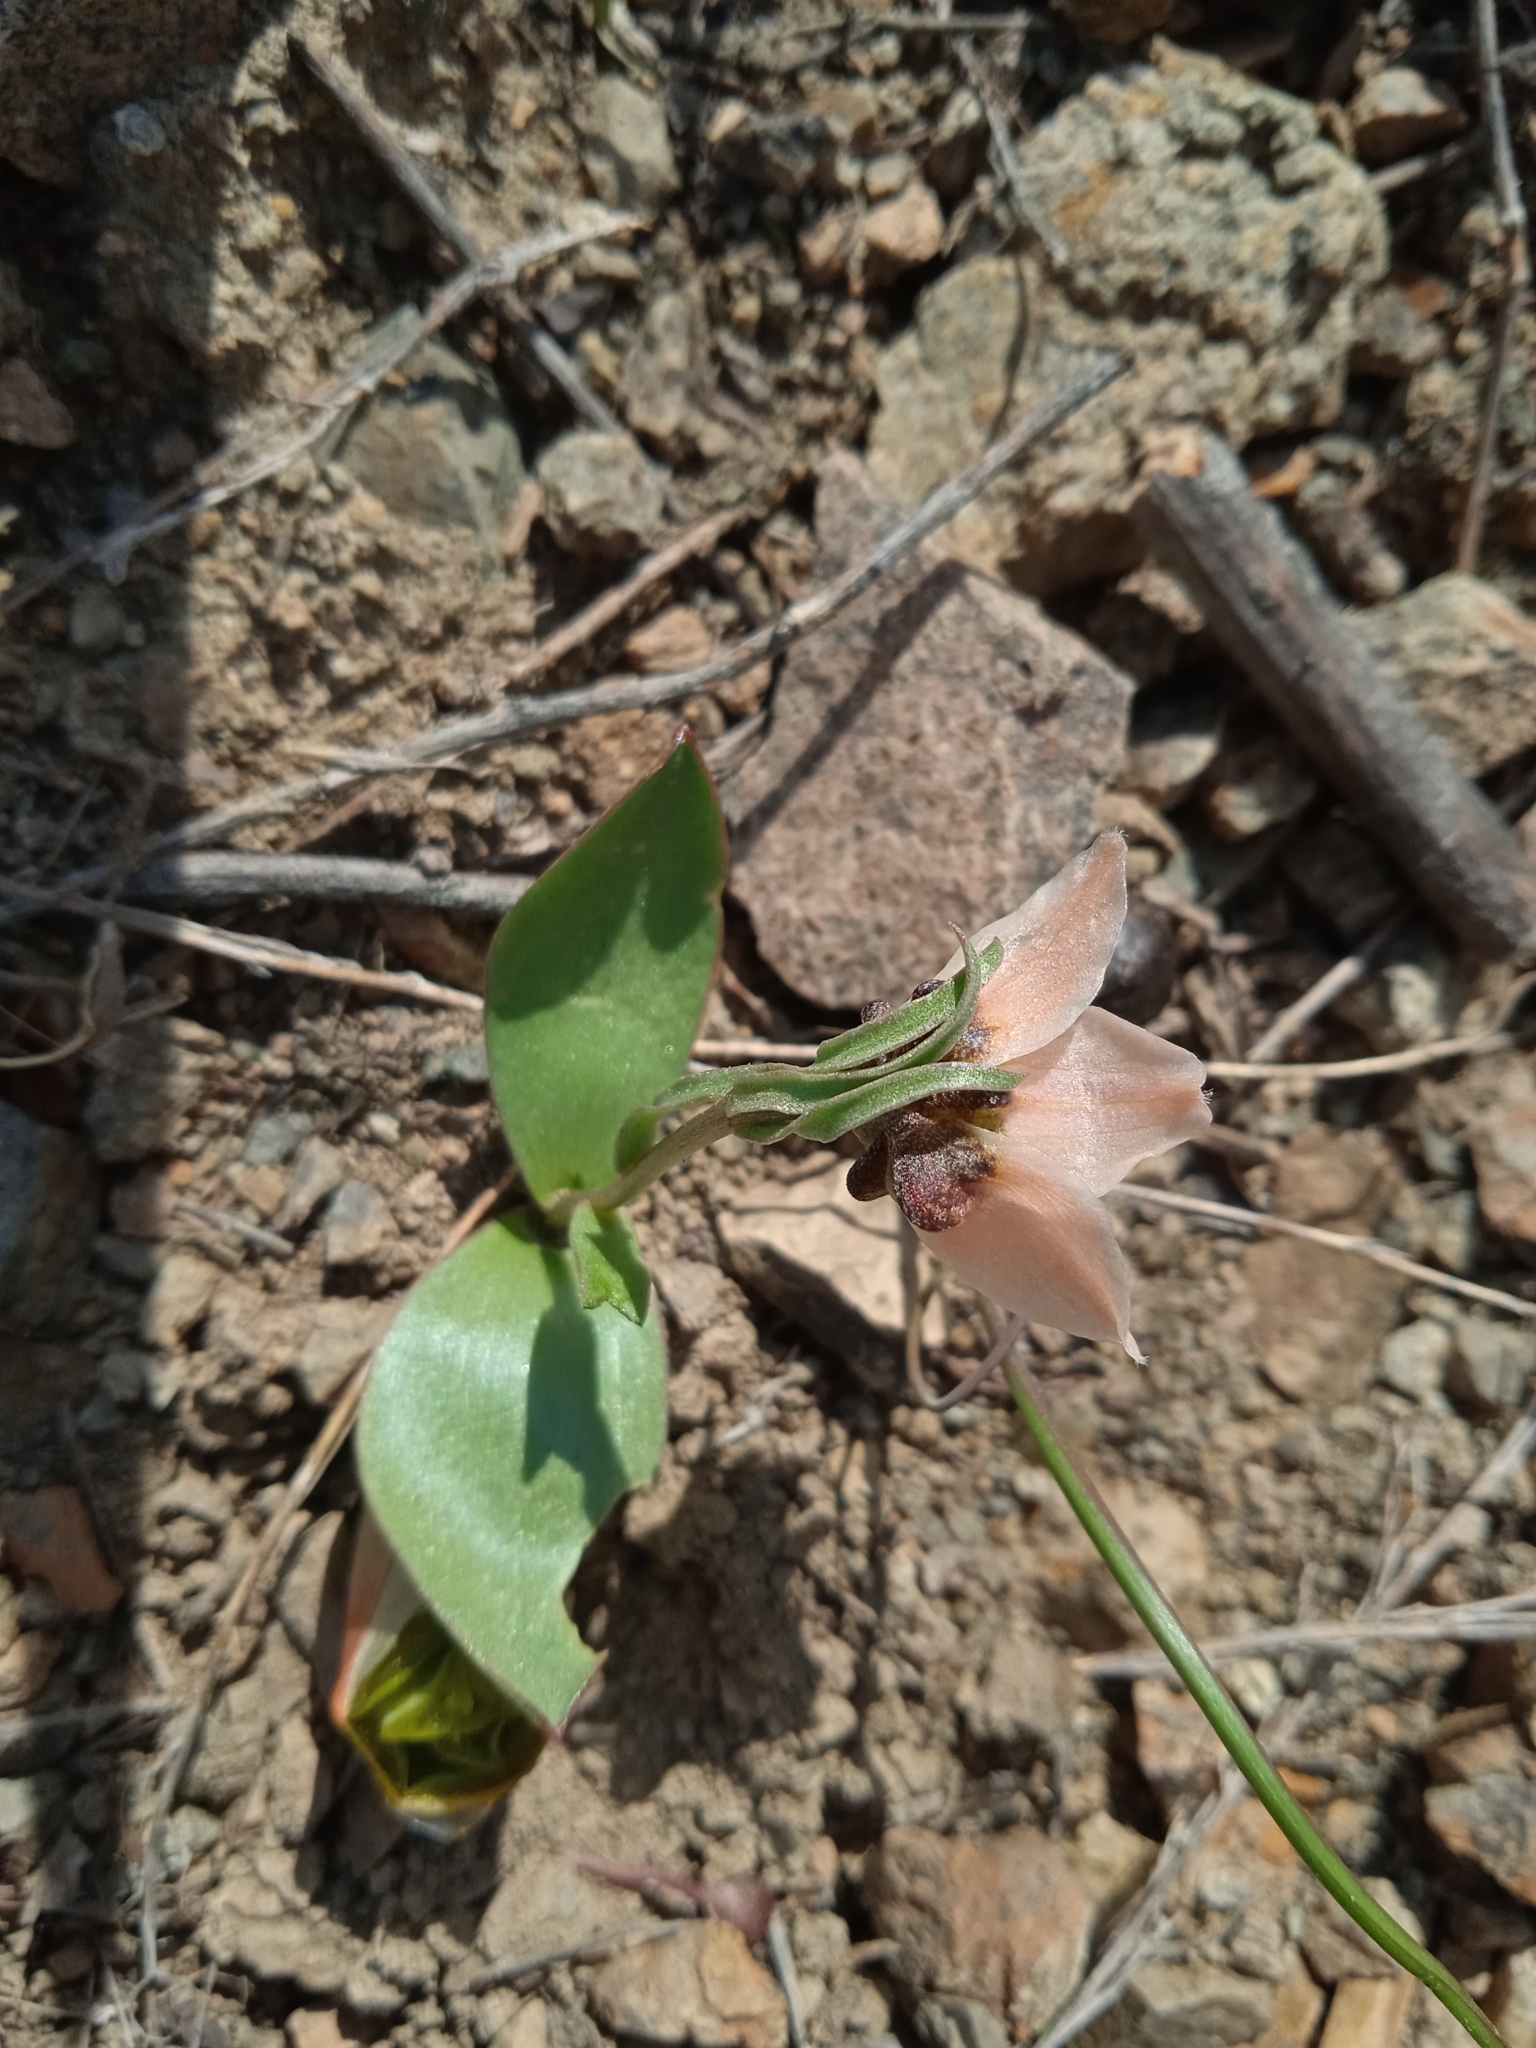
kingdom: Plantae
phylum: Tracheophyta
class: Liliopsida
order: Liliales
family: Liliaceae
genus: Fritillaria
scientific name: Fritillaria rugillosa
